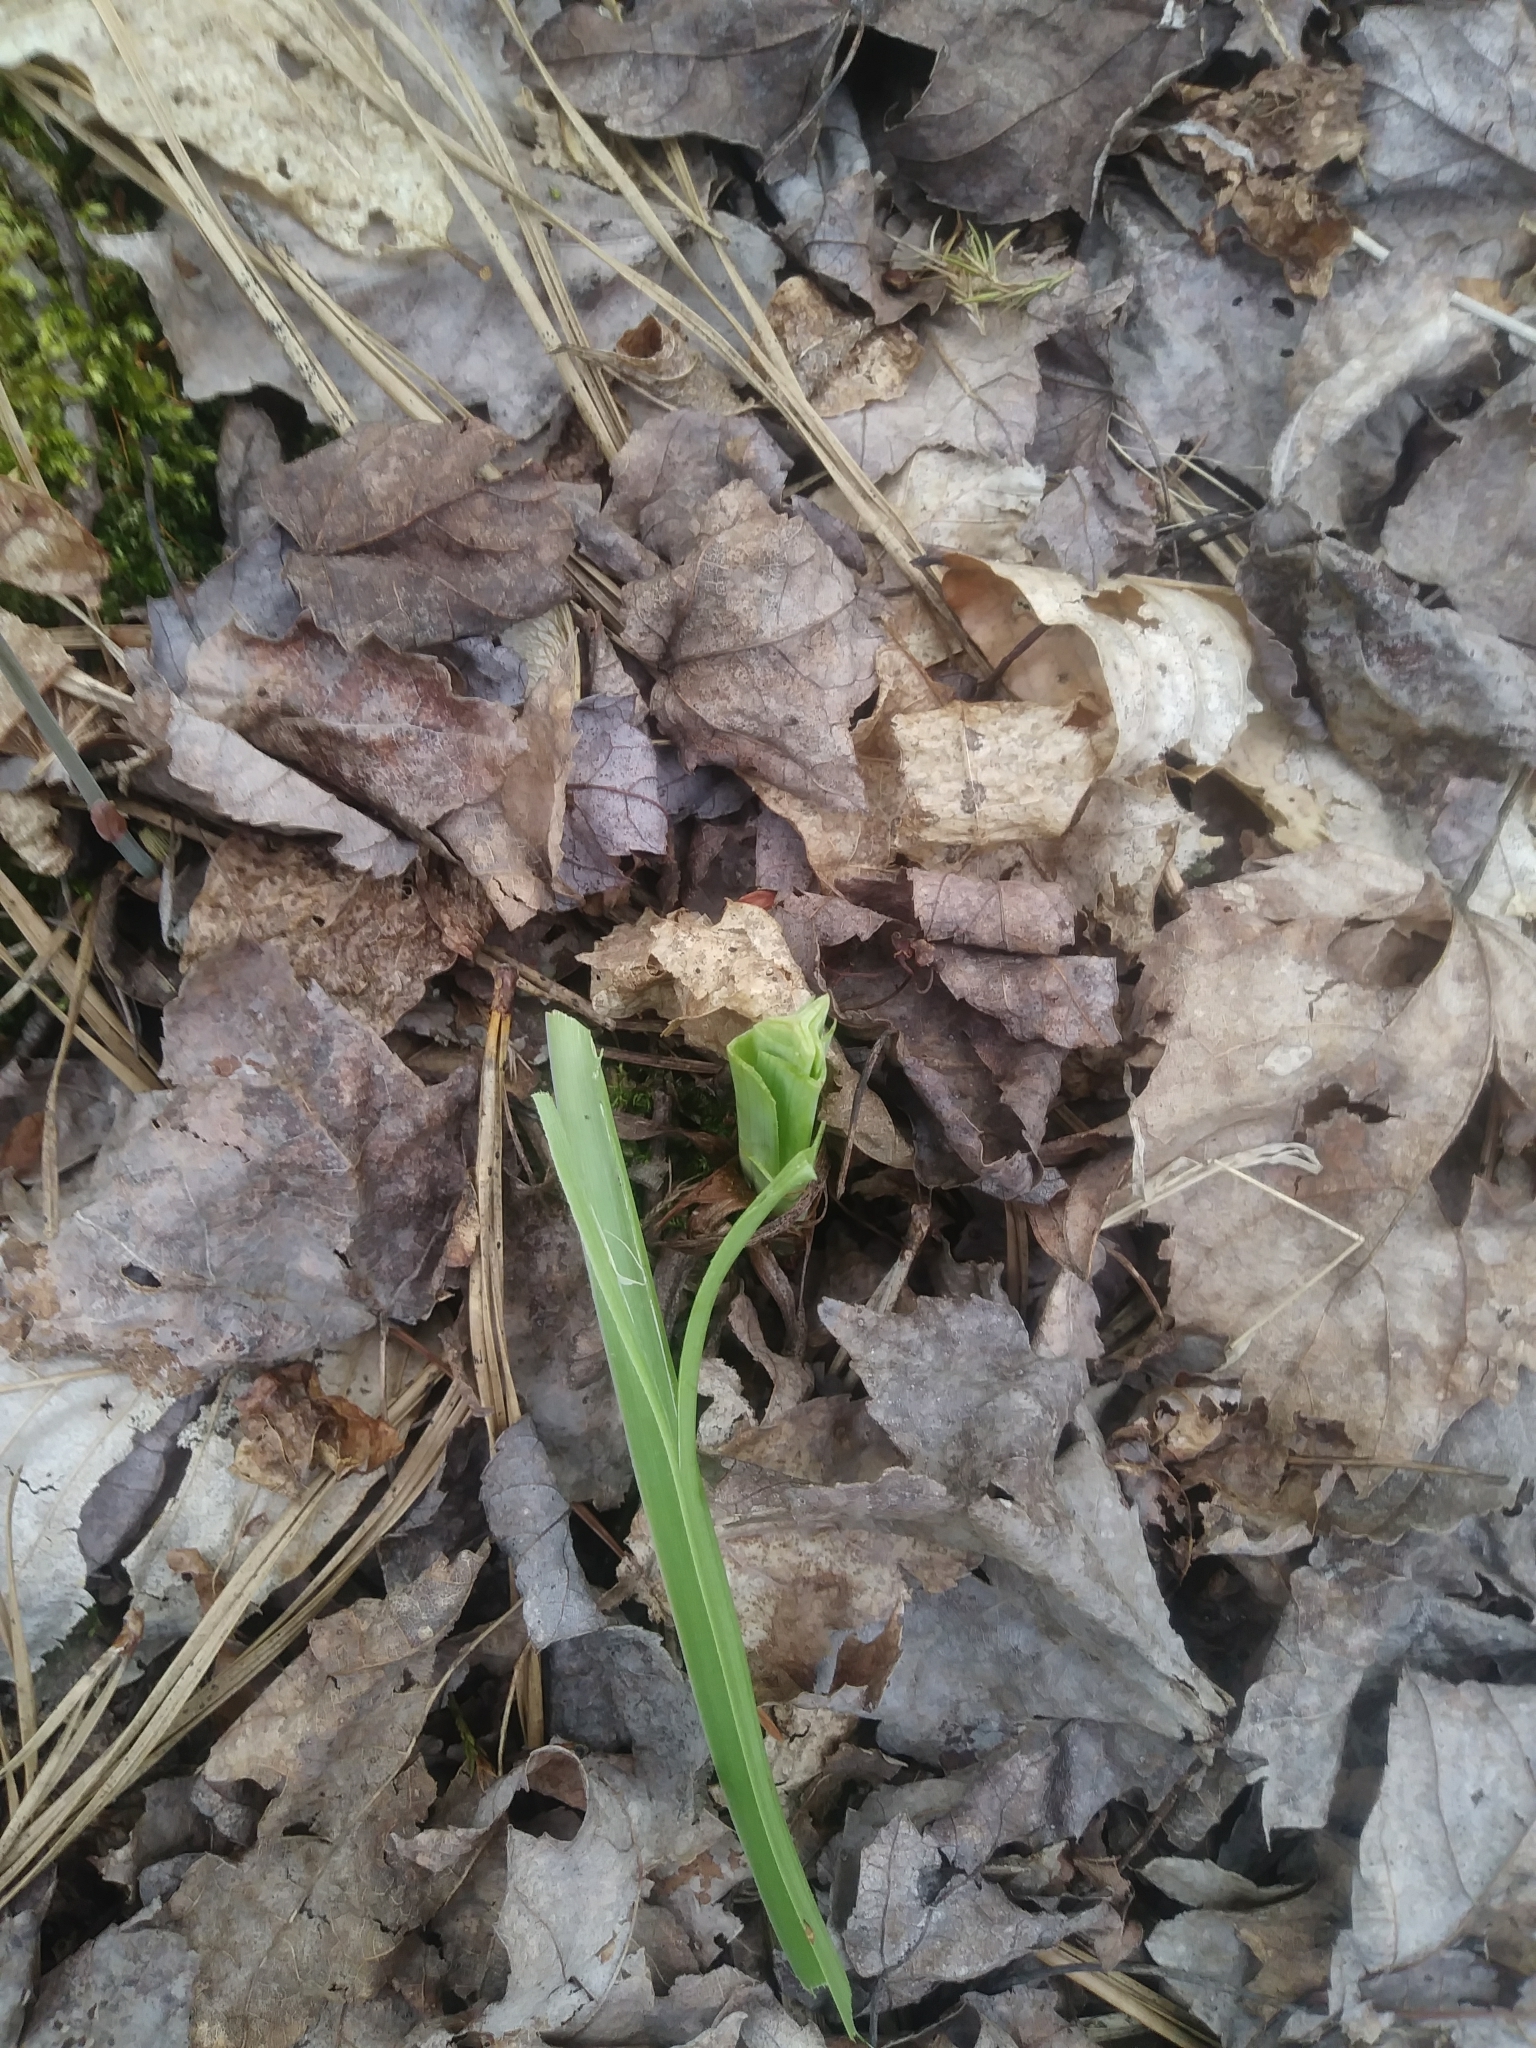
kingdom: Plantae
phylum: Tracheophyta
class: Liliopsida
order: Liliales
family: Melanthiaceae
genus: Amianthium
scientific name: Amianthium muscitoxicum
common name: Fly-poison
